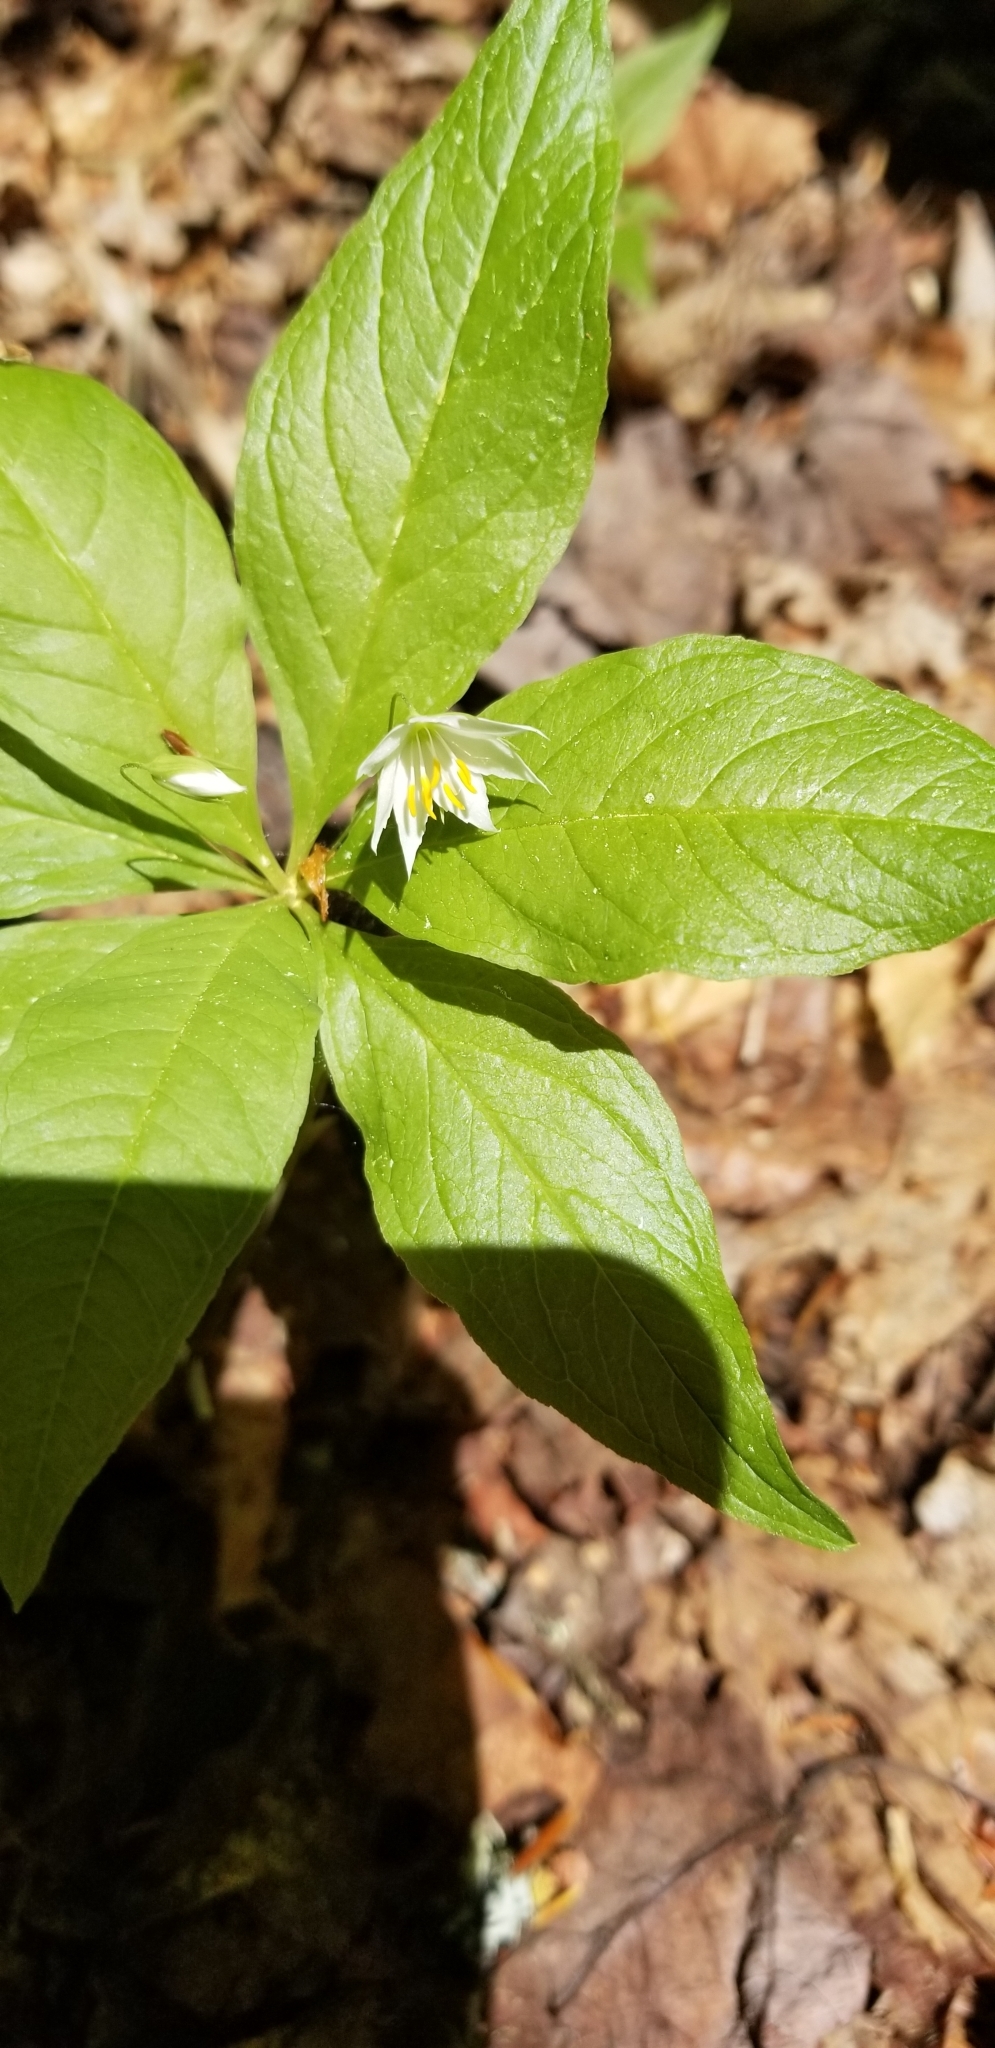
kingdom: Plantae
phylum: Tracheophyta
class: Magnoliopsida
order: Ericales
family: Primulaceae
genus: Lysimachia
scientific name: Lysimachia borealis
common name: American starflower
